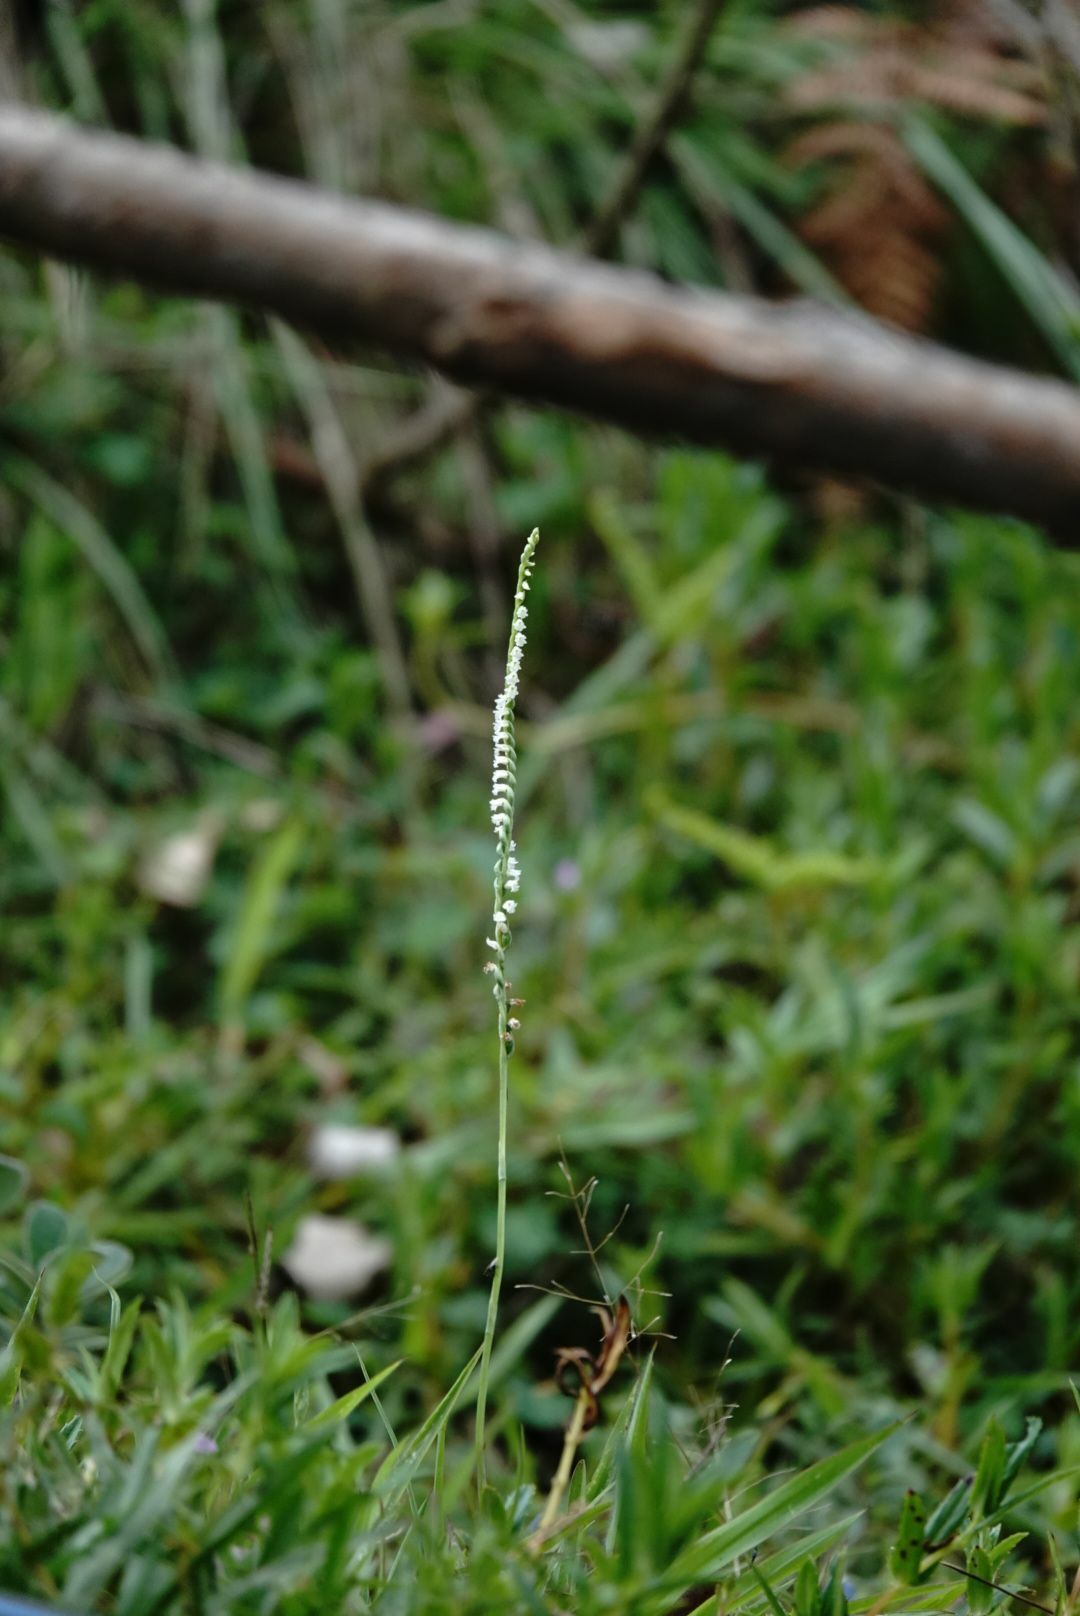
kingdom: Plantae
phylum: Tracheophyta
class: Liliopsida
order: Asparagales
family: Orchidaceae
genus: Spiranthes
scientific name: Spiranthes flexuosa
